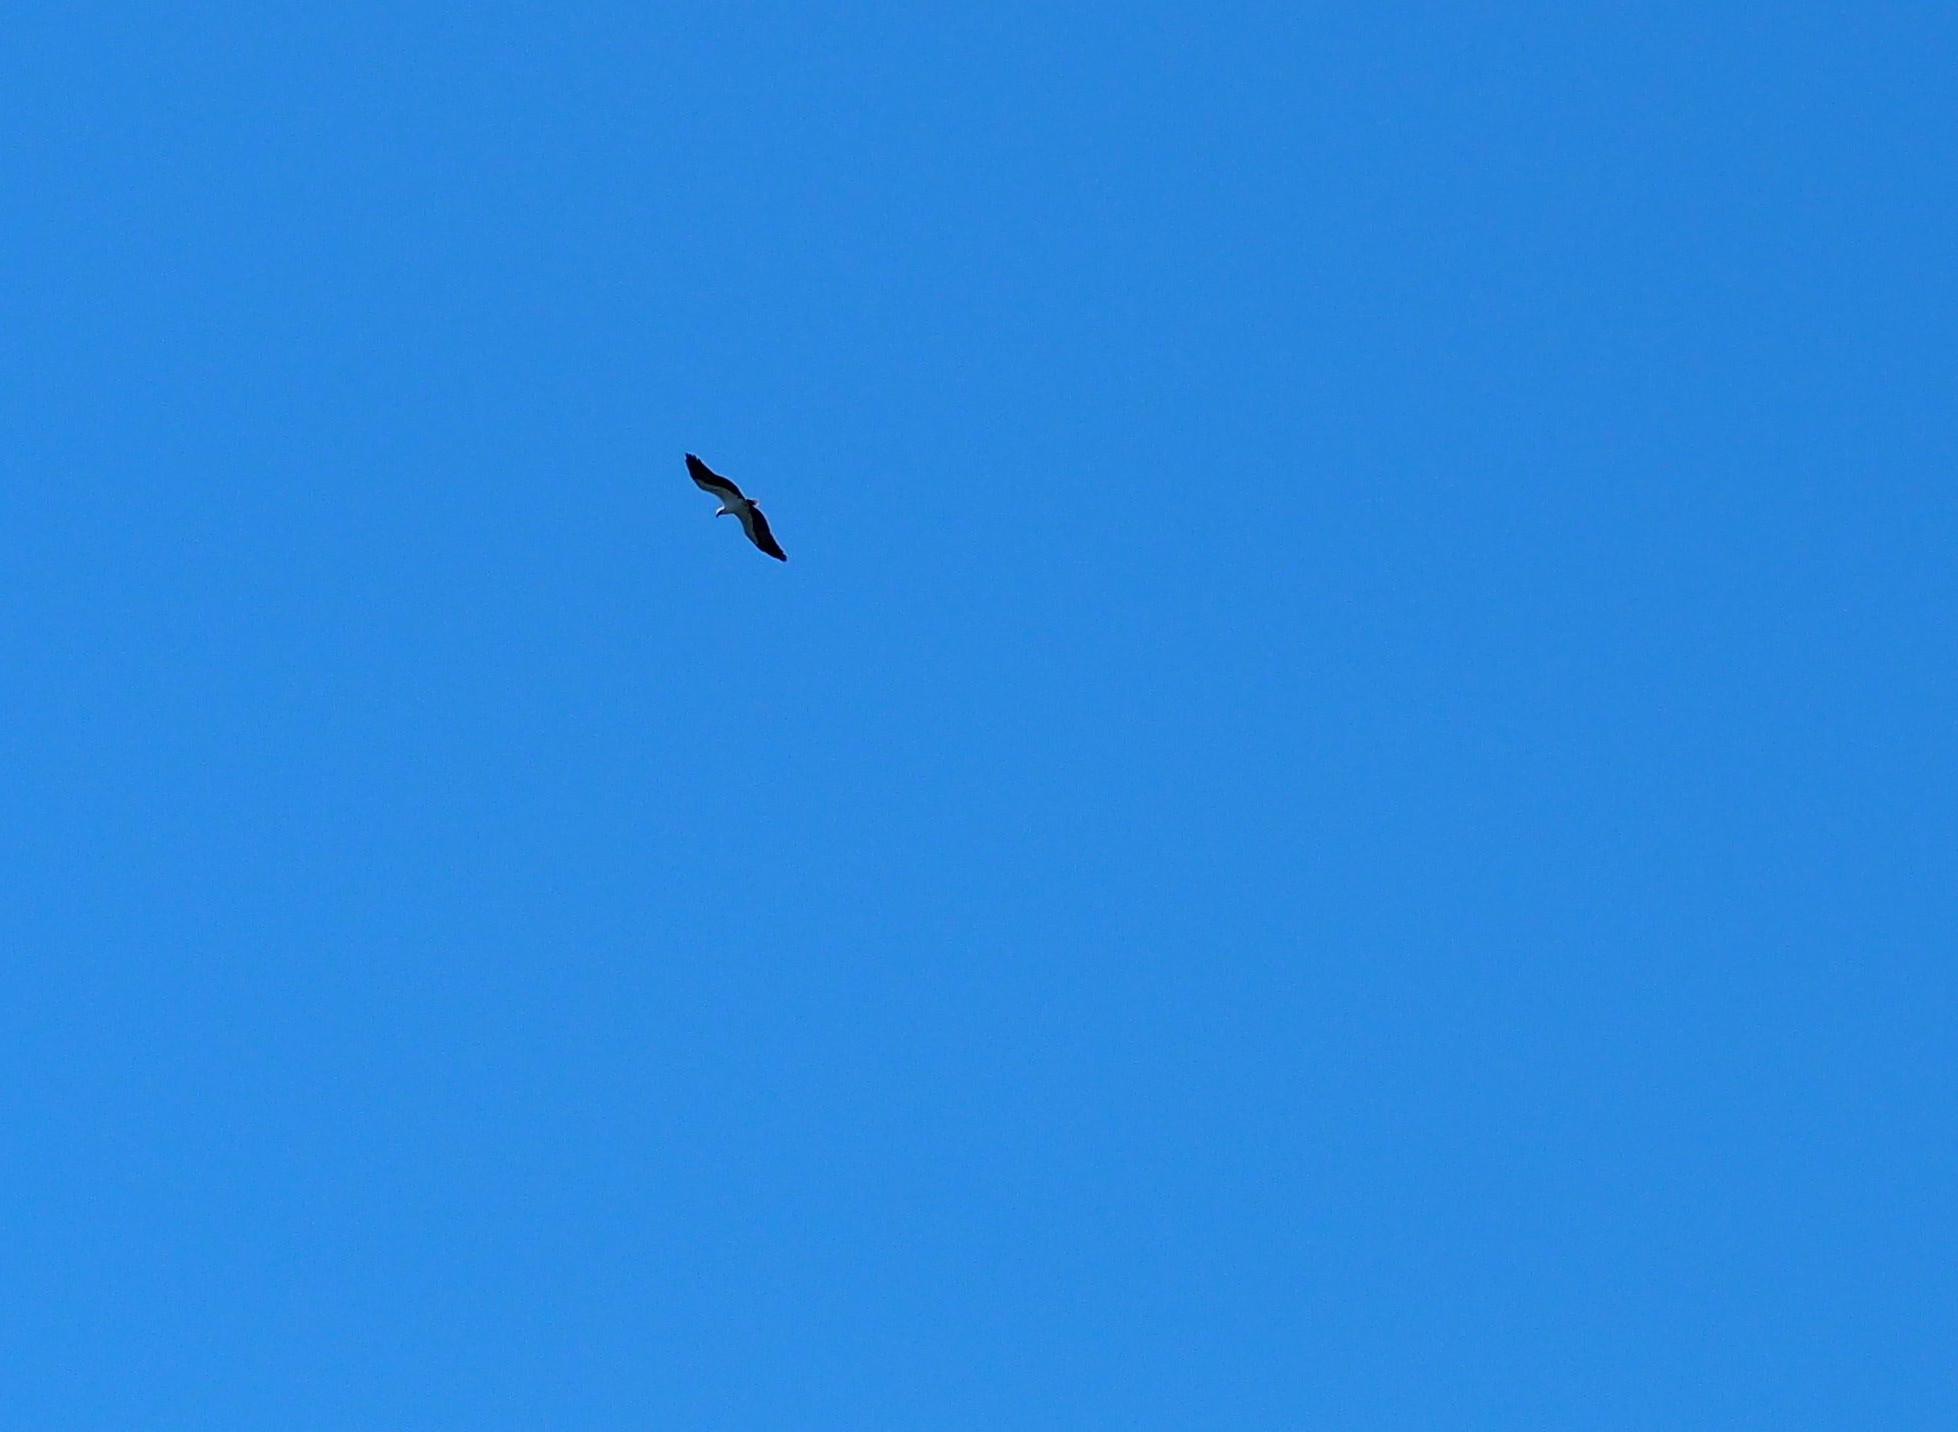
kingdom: Animalia
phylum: Chordata
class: Aves
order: Accipitriformes
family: Accipitridae
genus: Haliaeetus
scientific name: Haliaeetus leucogaster
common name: White-bellied sea eagle
